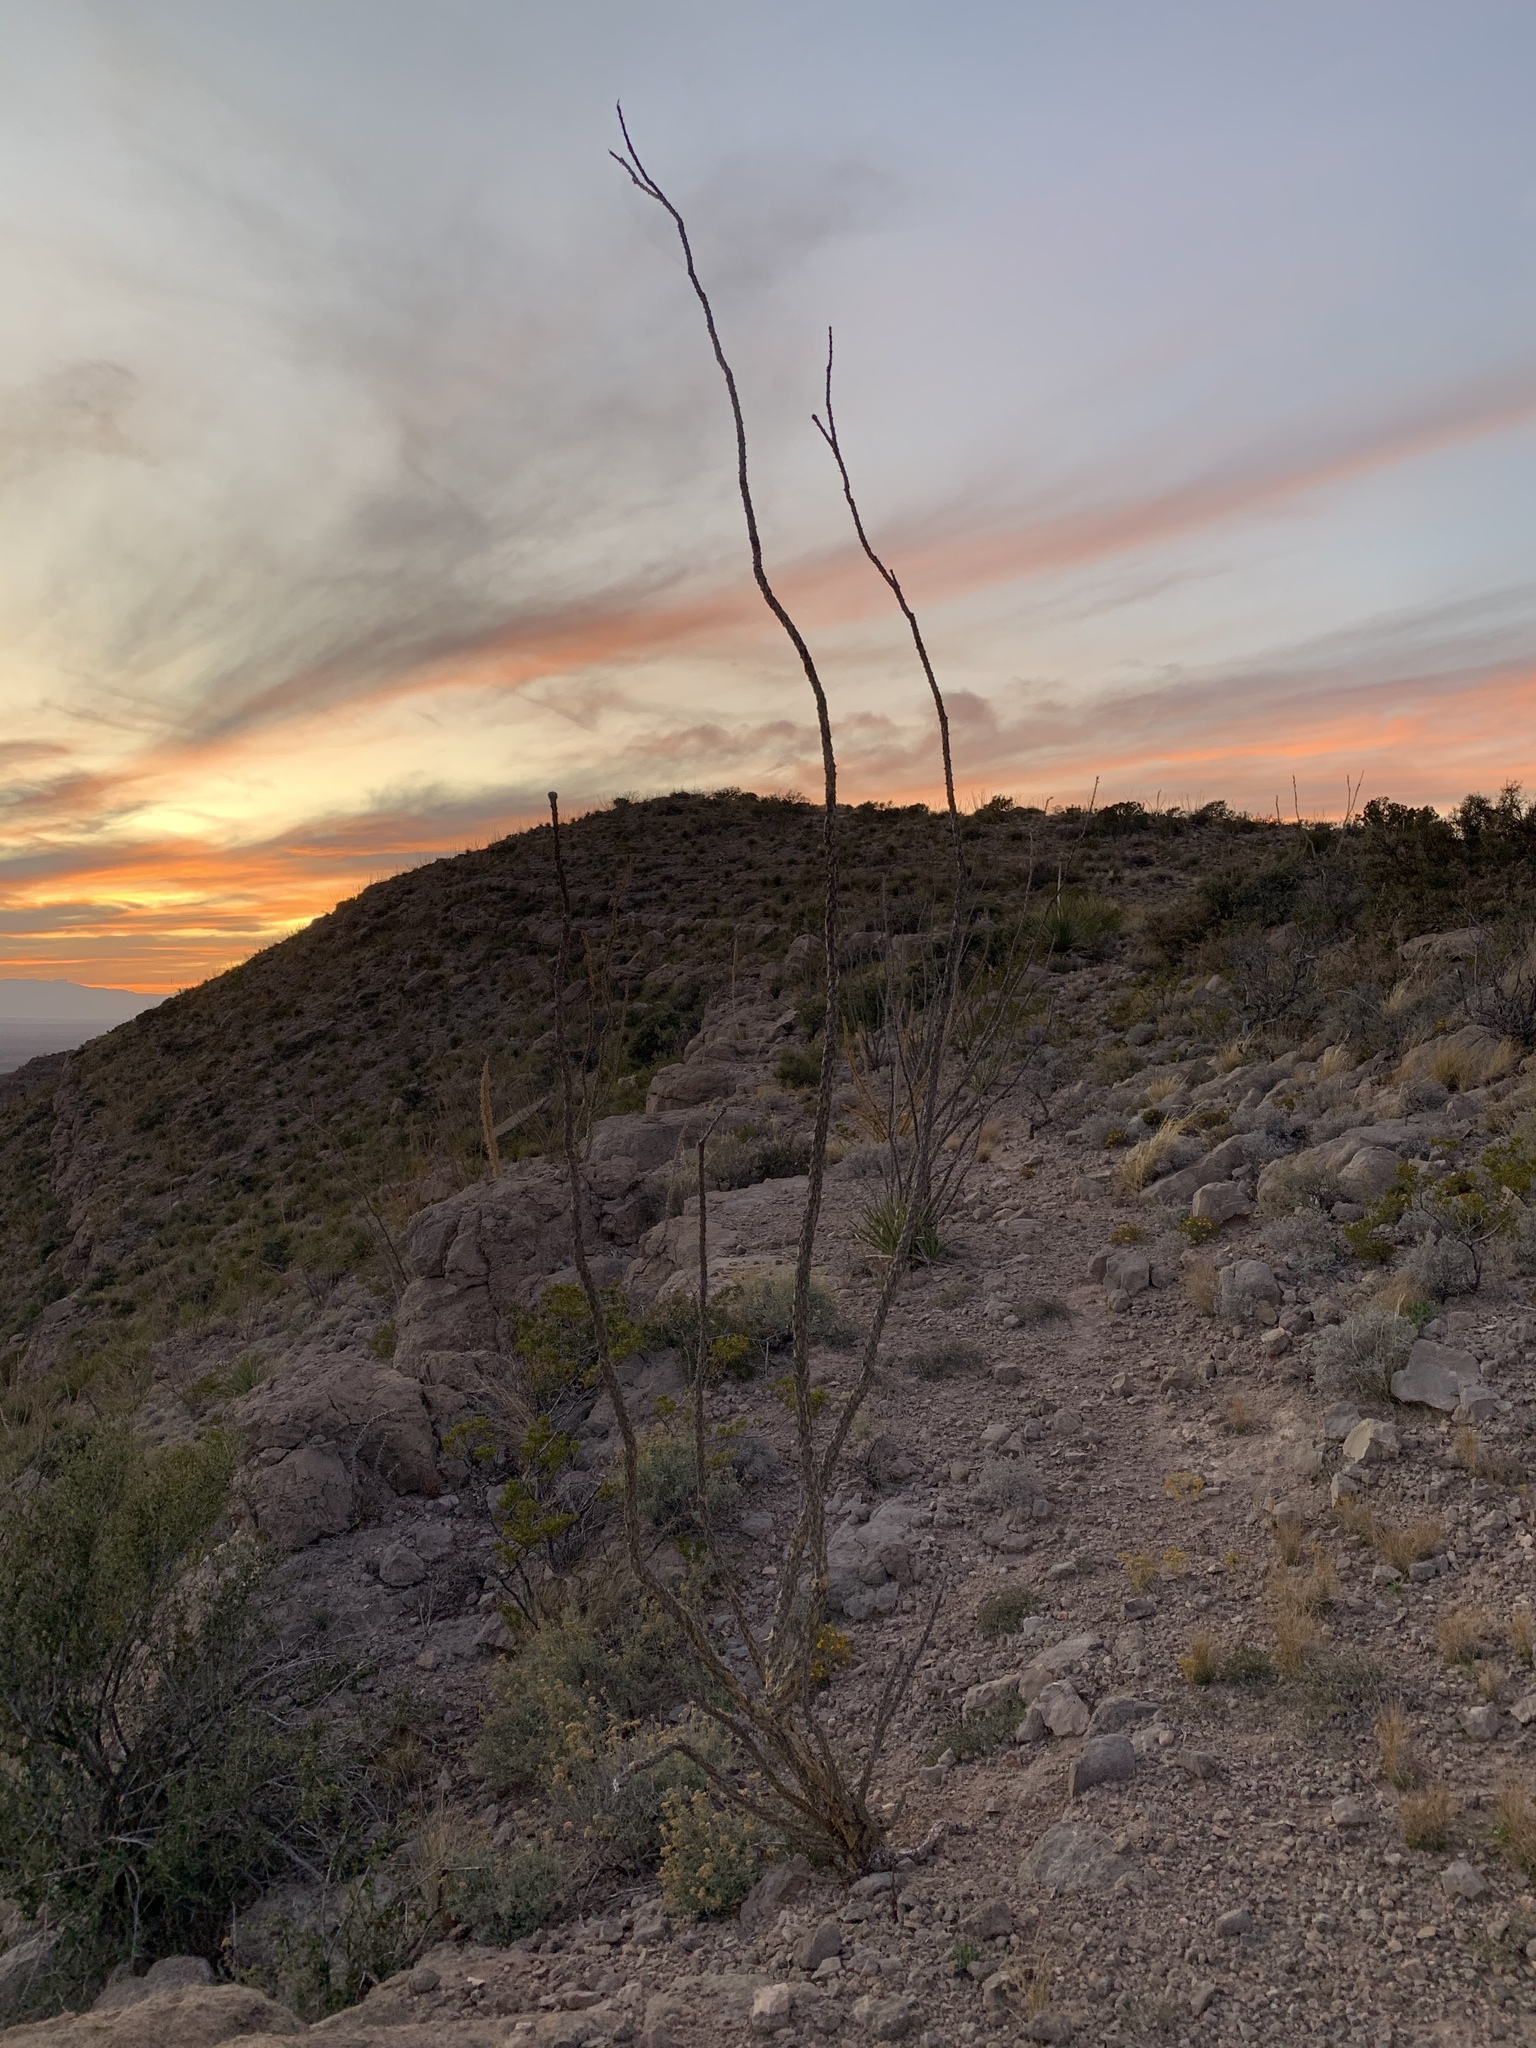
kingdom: Plantae
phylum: Tracheophyta
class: Magnoliopsida
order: Ericales
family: Fouquieriaceae
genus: Fouquieria
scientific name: Fouquieria splendens
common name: Vine-cactus
